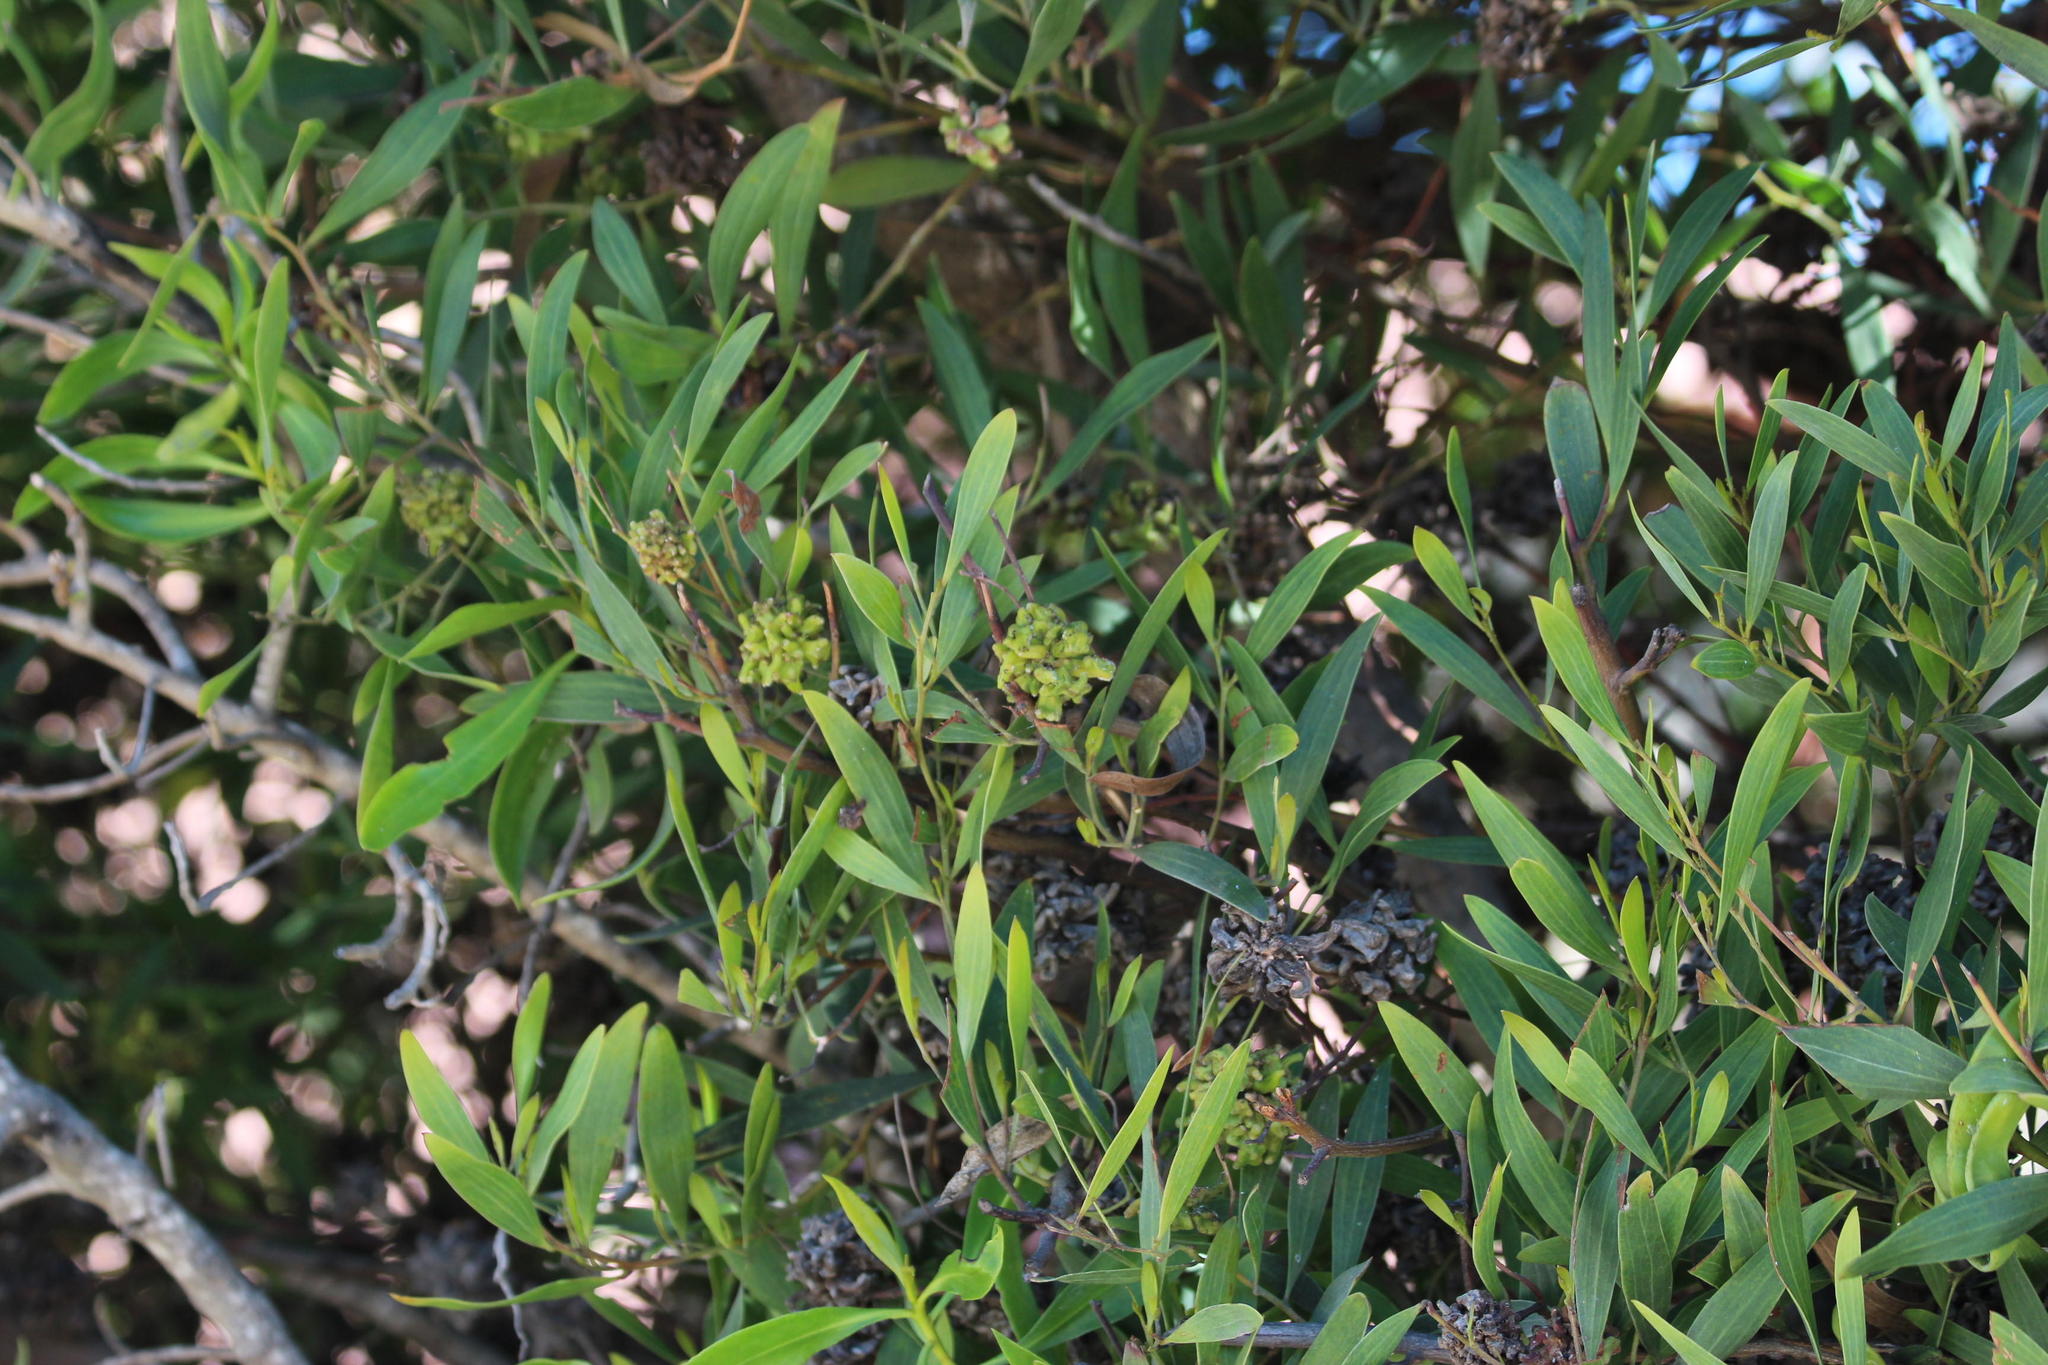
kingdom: Plantae
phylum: Tracheophyta
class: Magnoliopsida
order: Fabales
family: Fabaceae
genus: Acacia
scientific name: Acacia cyclops
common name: Coastal wattle
